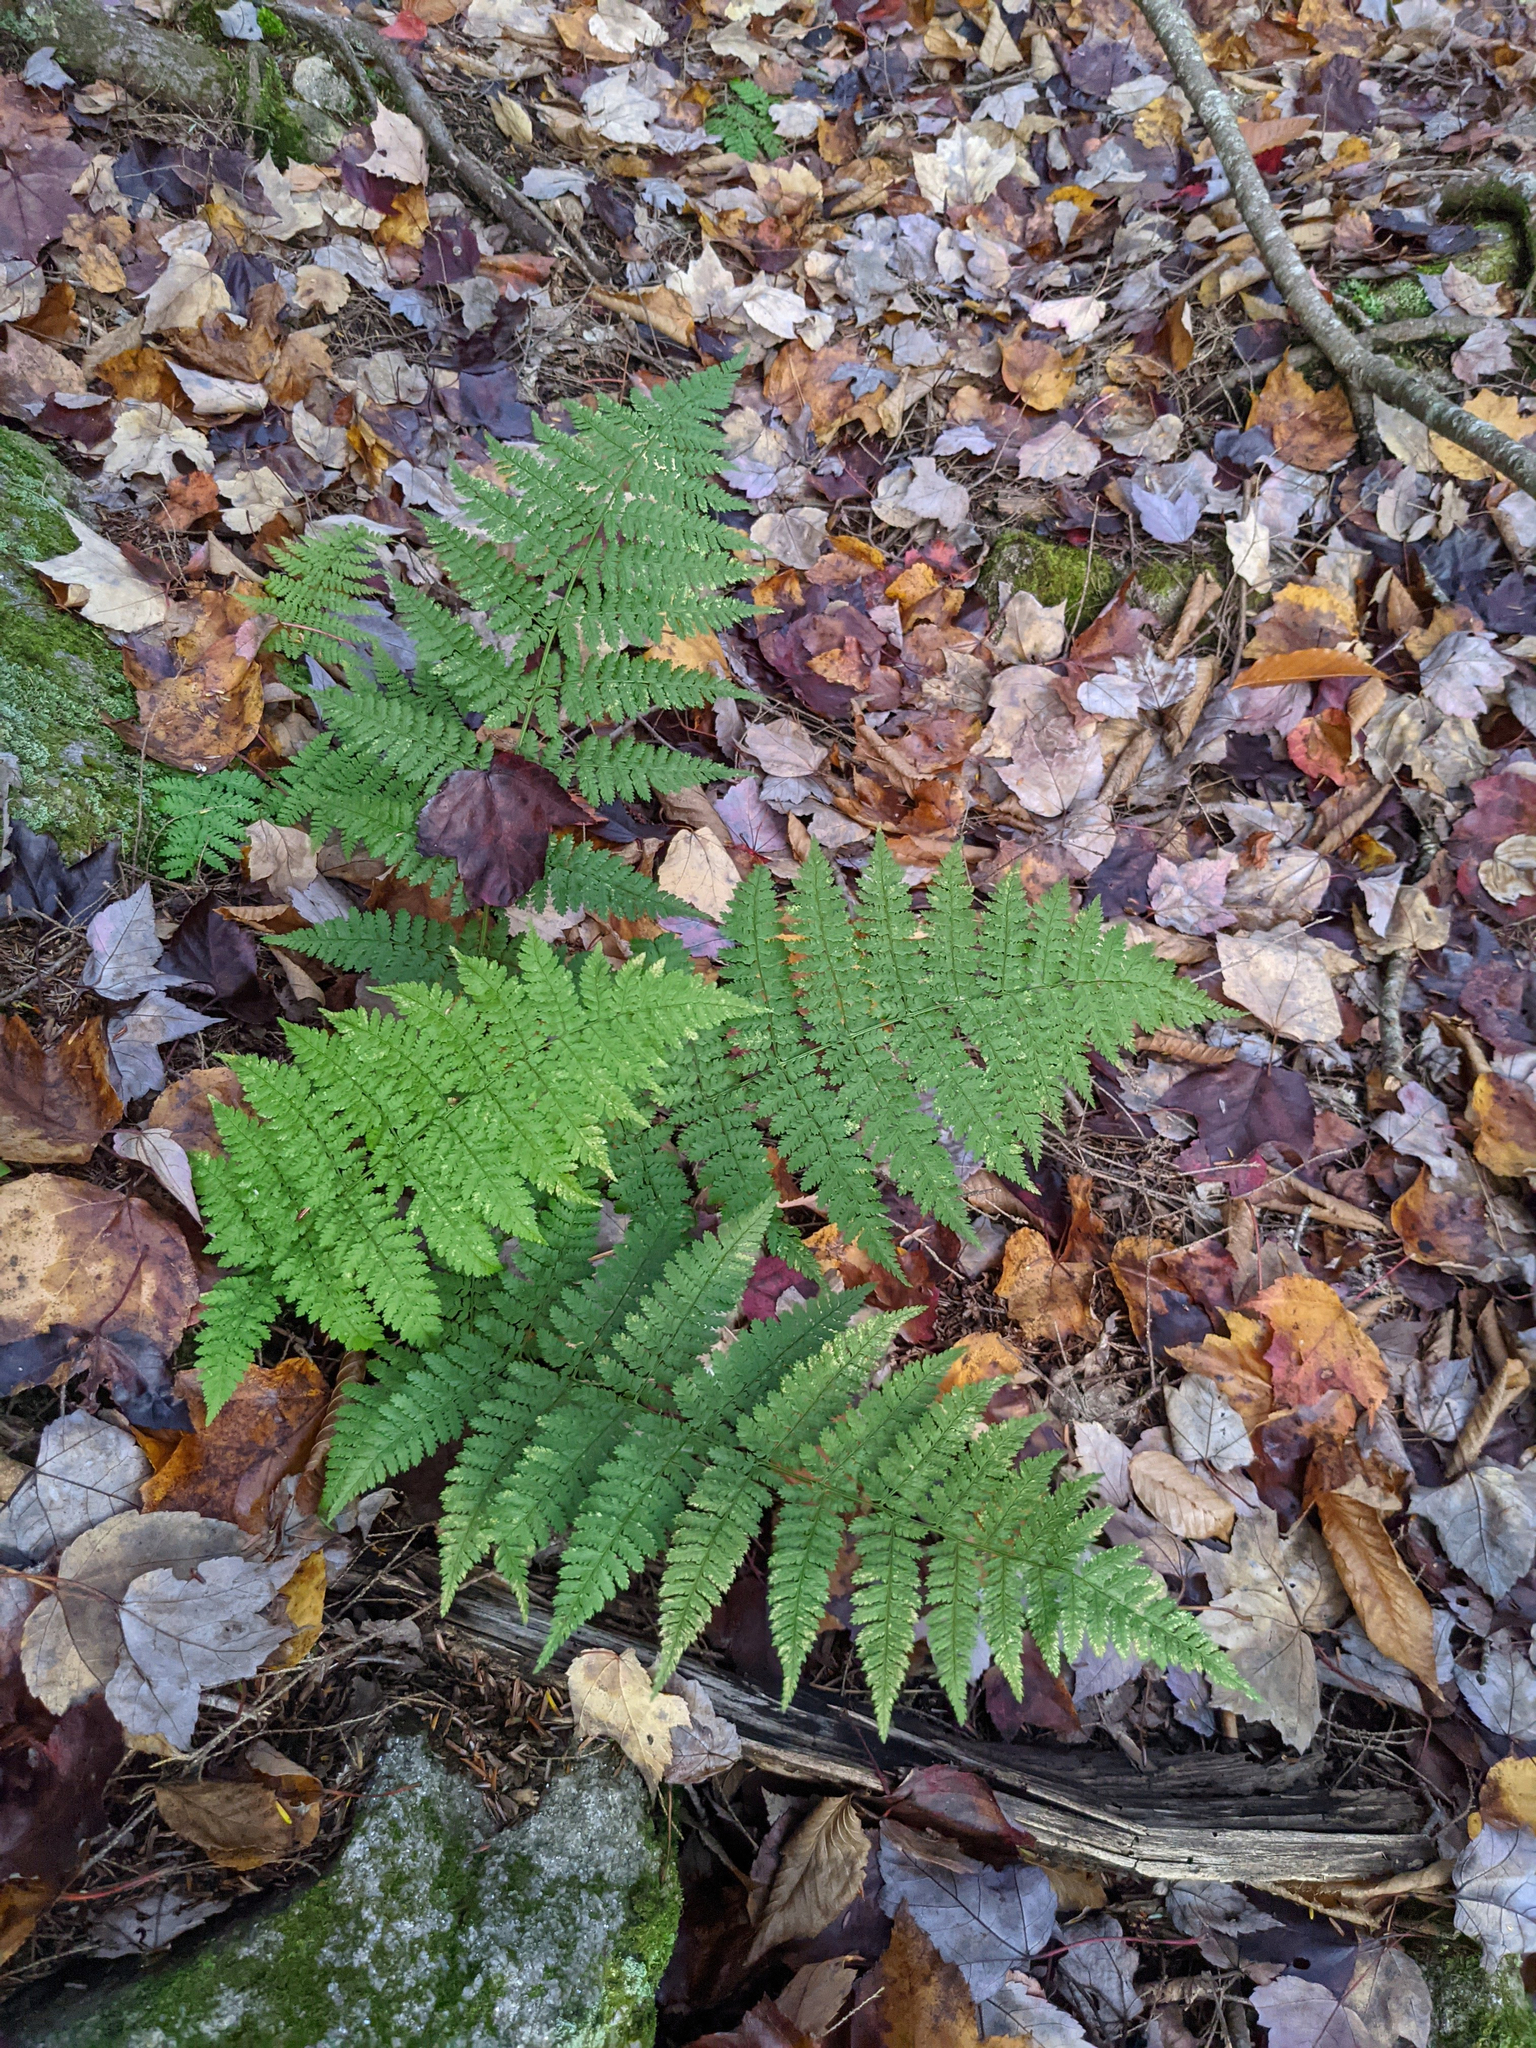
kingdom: Plantae
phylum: Tracheophyta
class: Polypodiopsida
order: Polypodiales
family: Dryopteridaceae
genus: Dryopteris
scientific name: Dryopteris intermedia
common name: Evergreen wood fern
